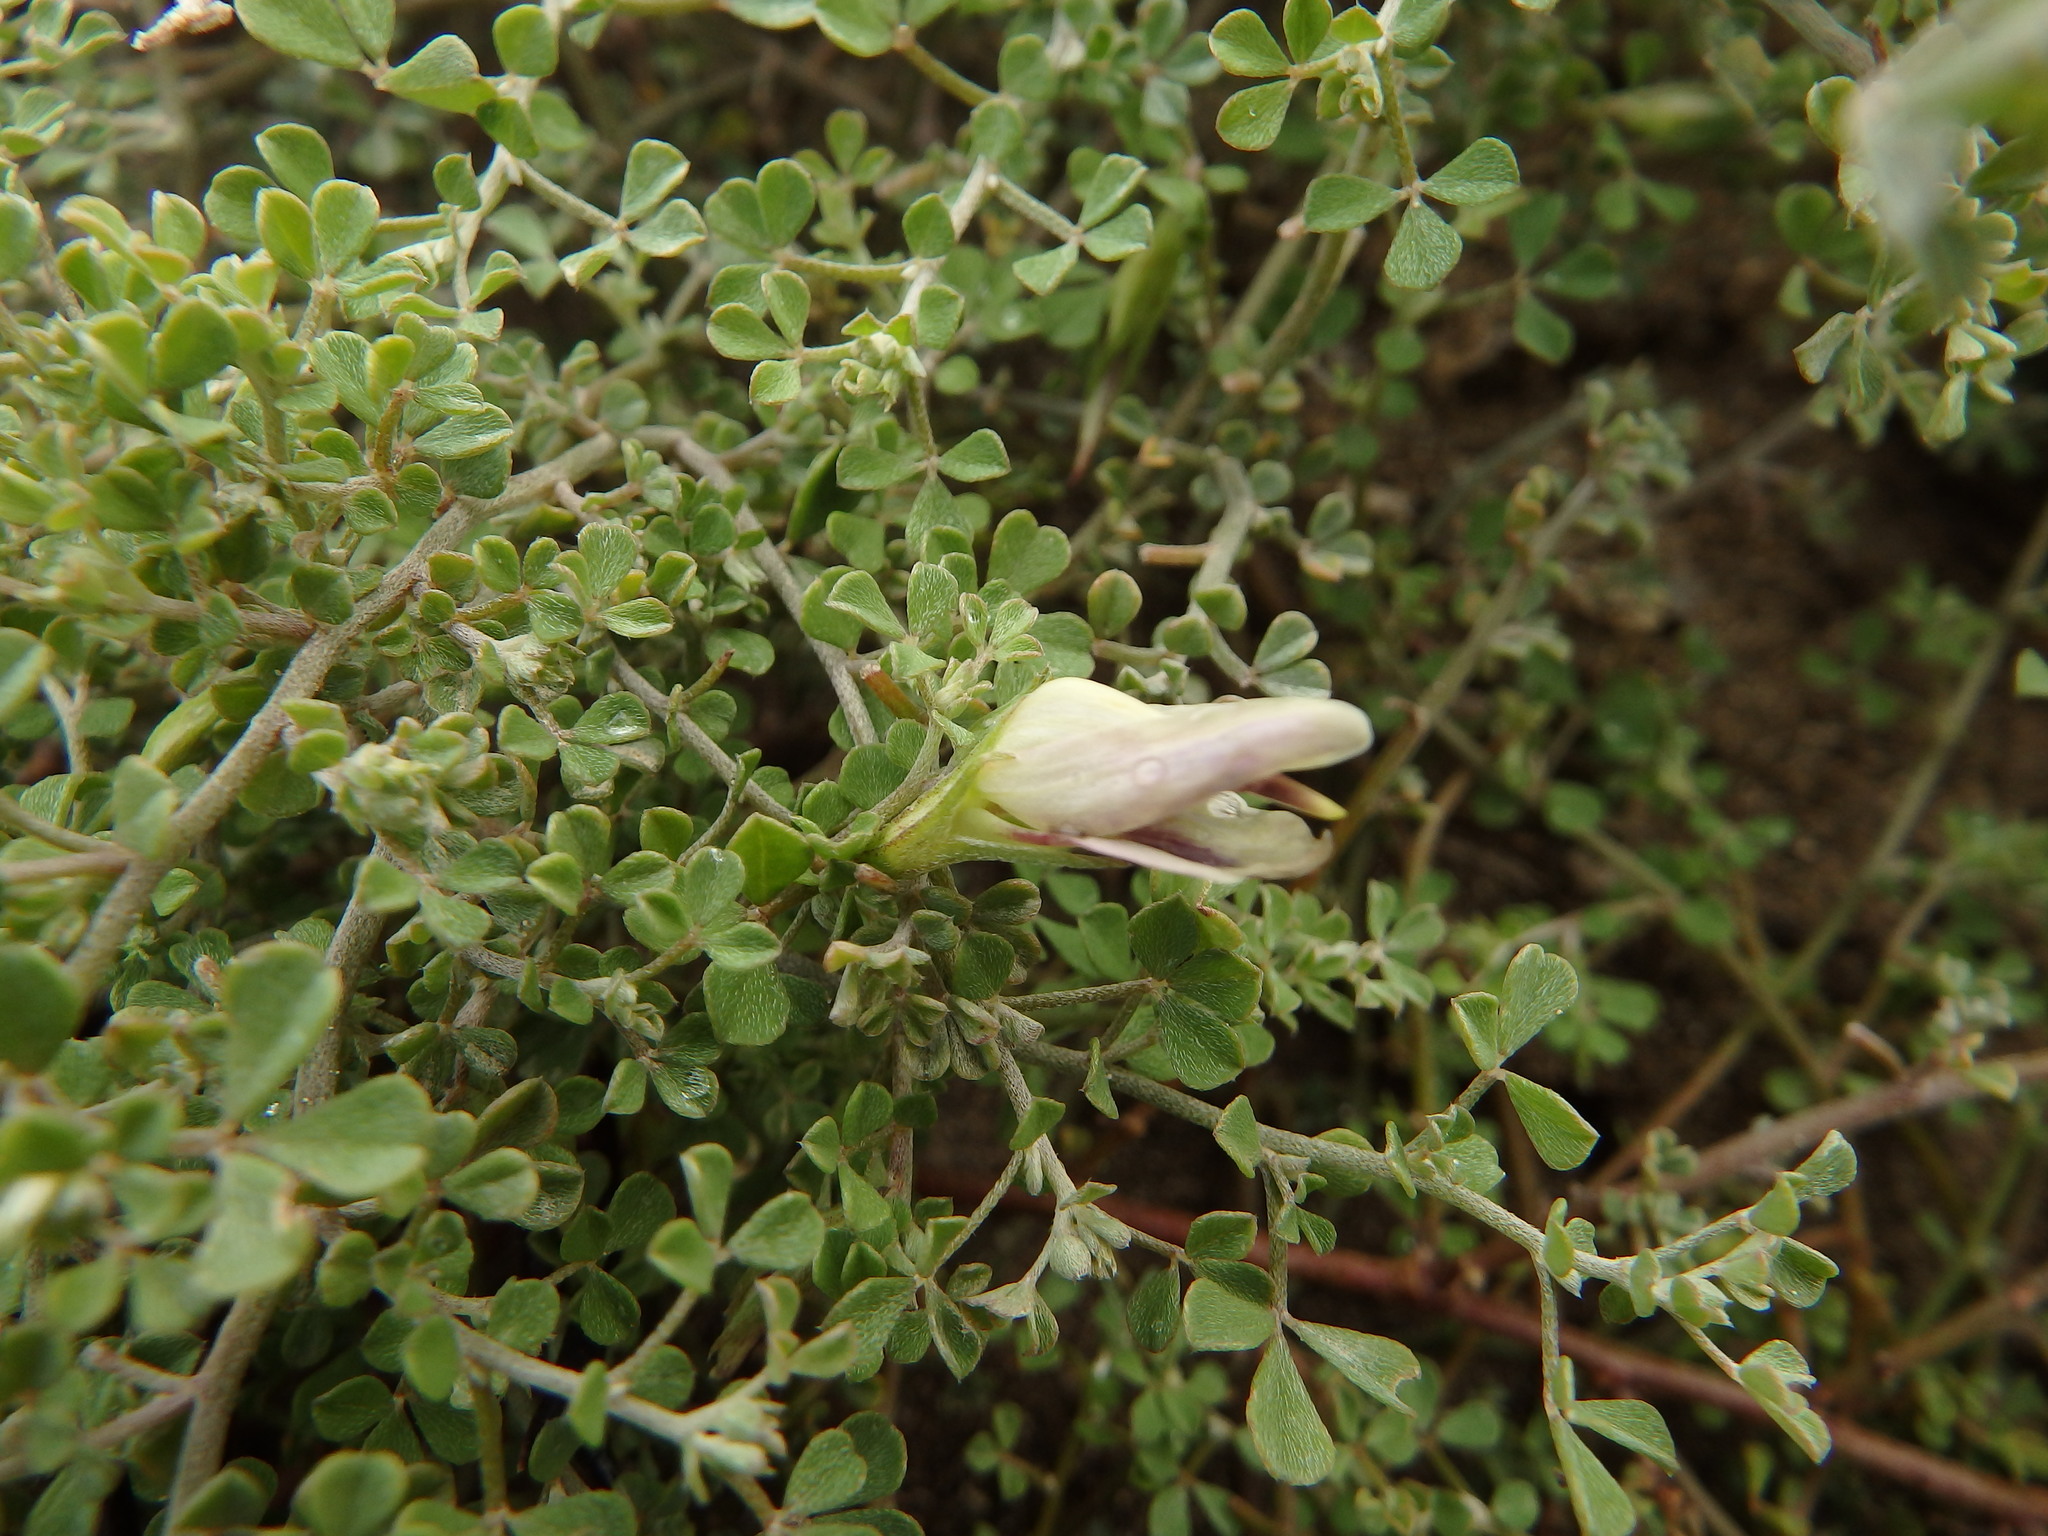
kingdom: Plantae
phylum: Tracheophyta
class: Magnoliopsida
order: Fabales
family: Fabaceae
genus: Lotus
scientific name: Lotus macranthus
